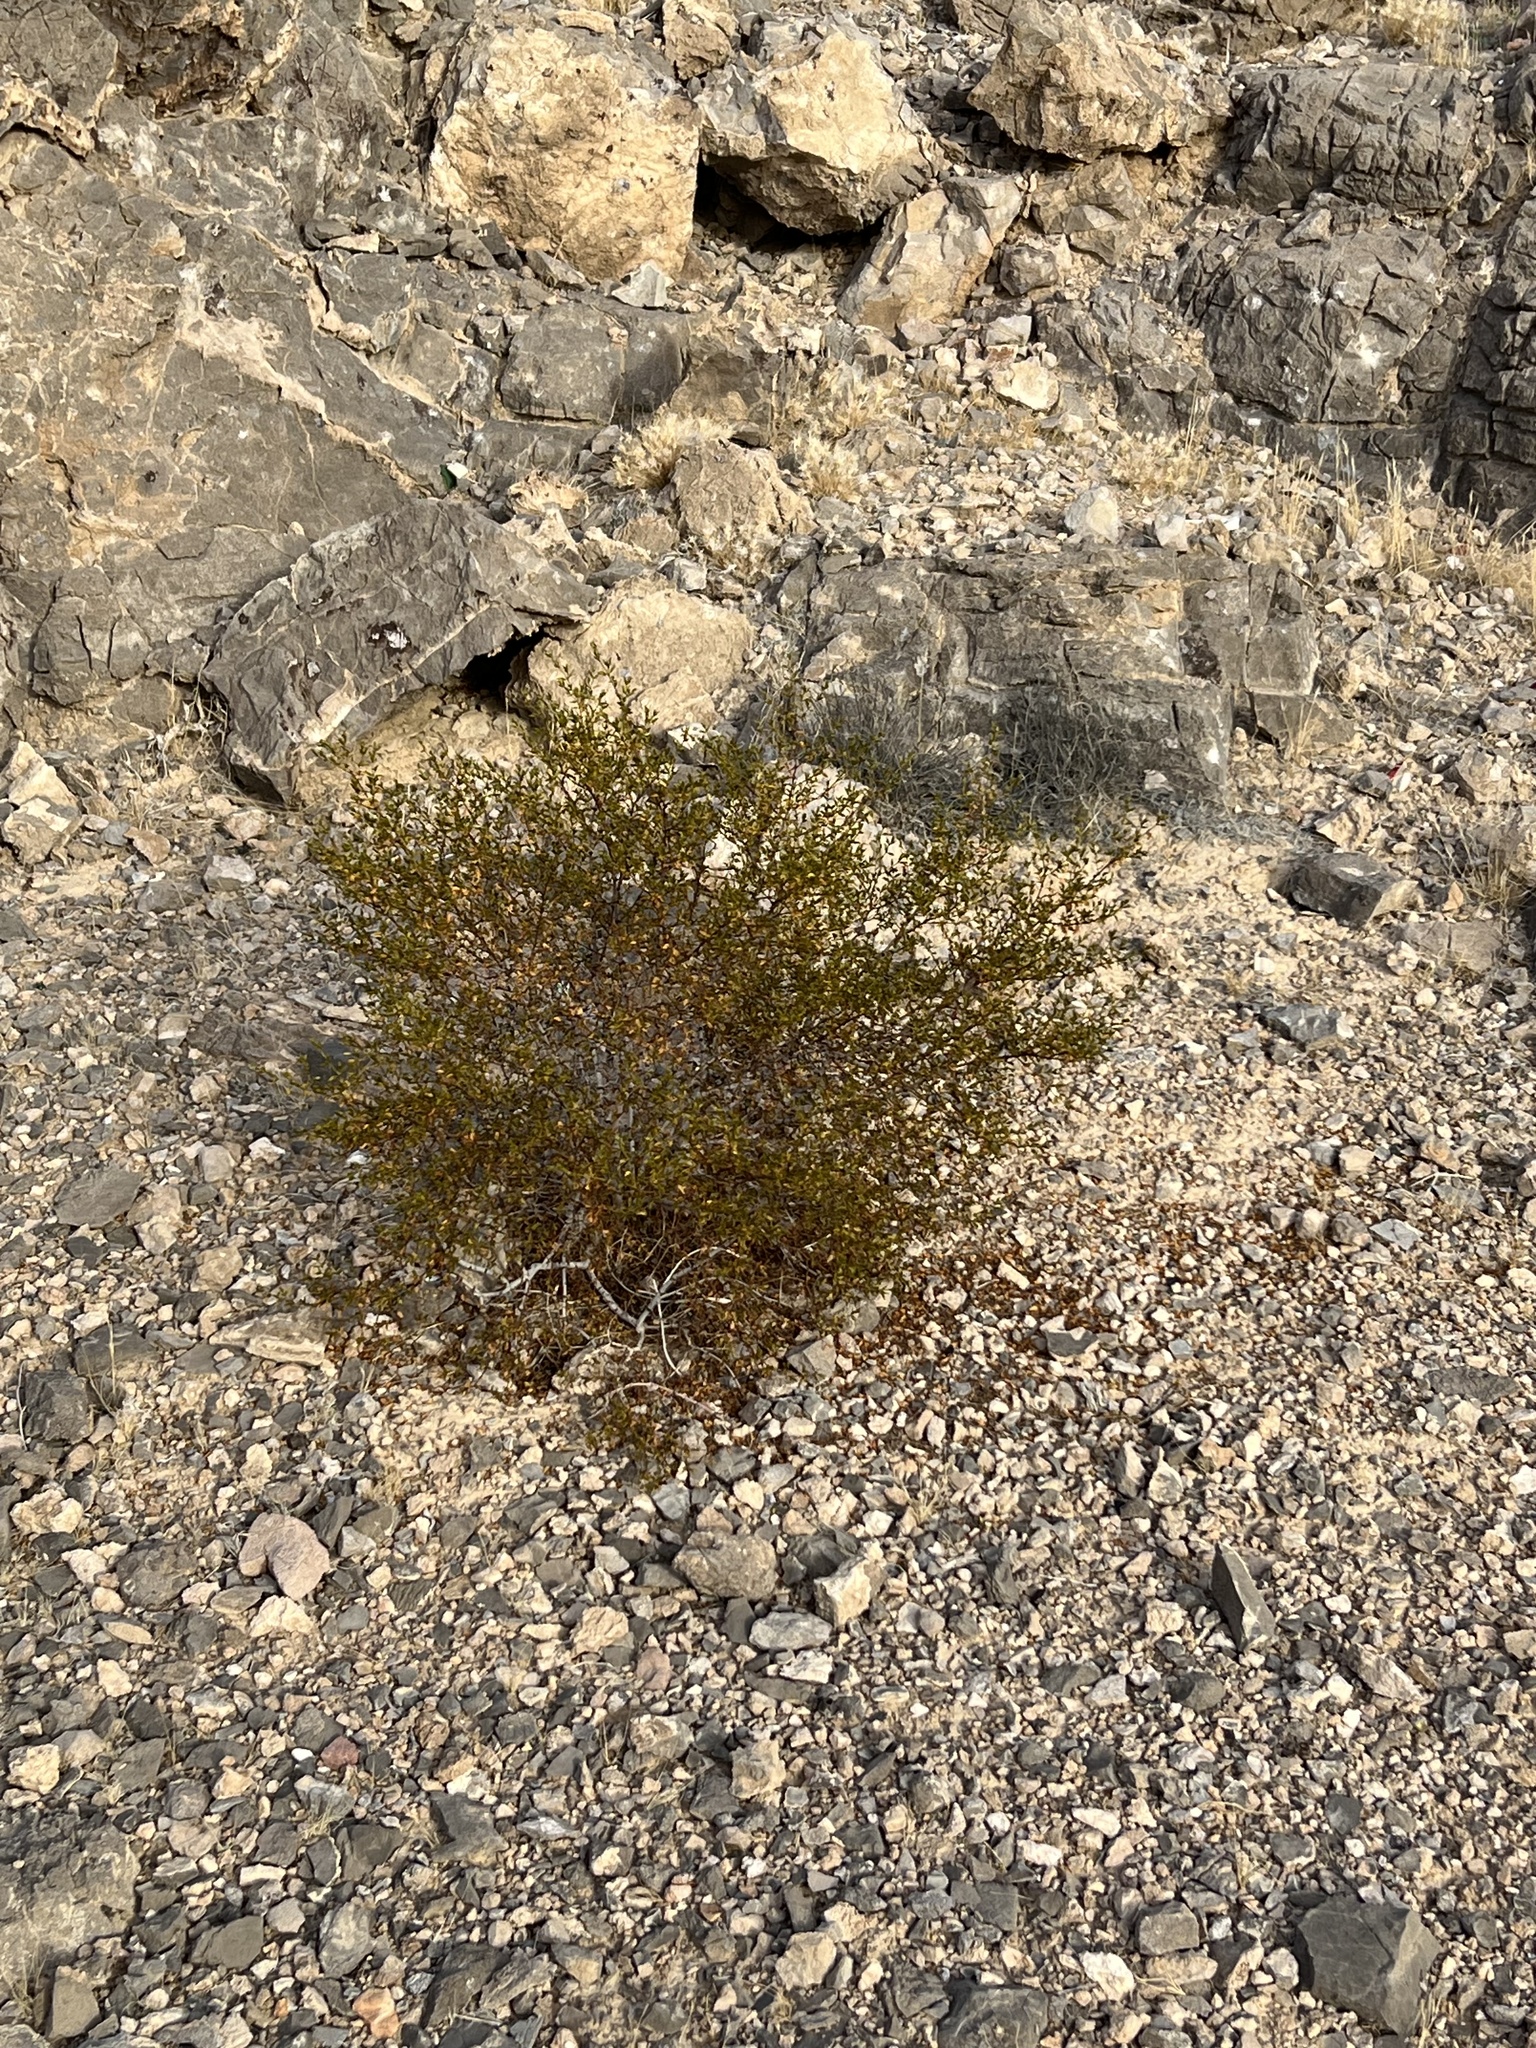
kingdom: Plantae
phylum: Tracheophyta
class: Magnoliopsida
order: Zygophyllales
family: Zygophyllaceae
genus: Larrea
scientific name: Larrea tridentata
